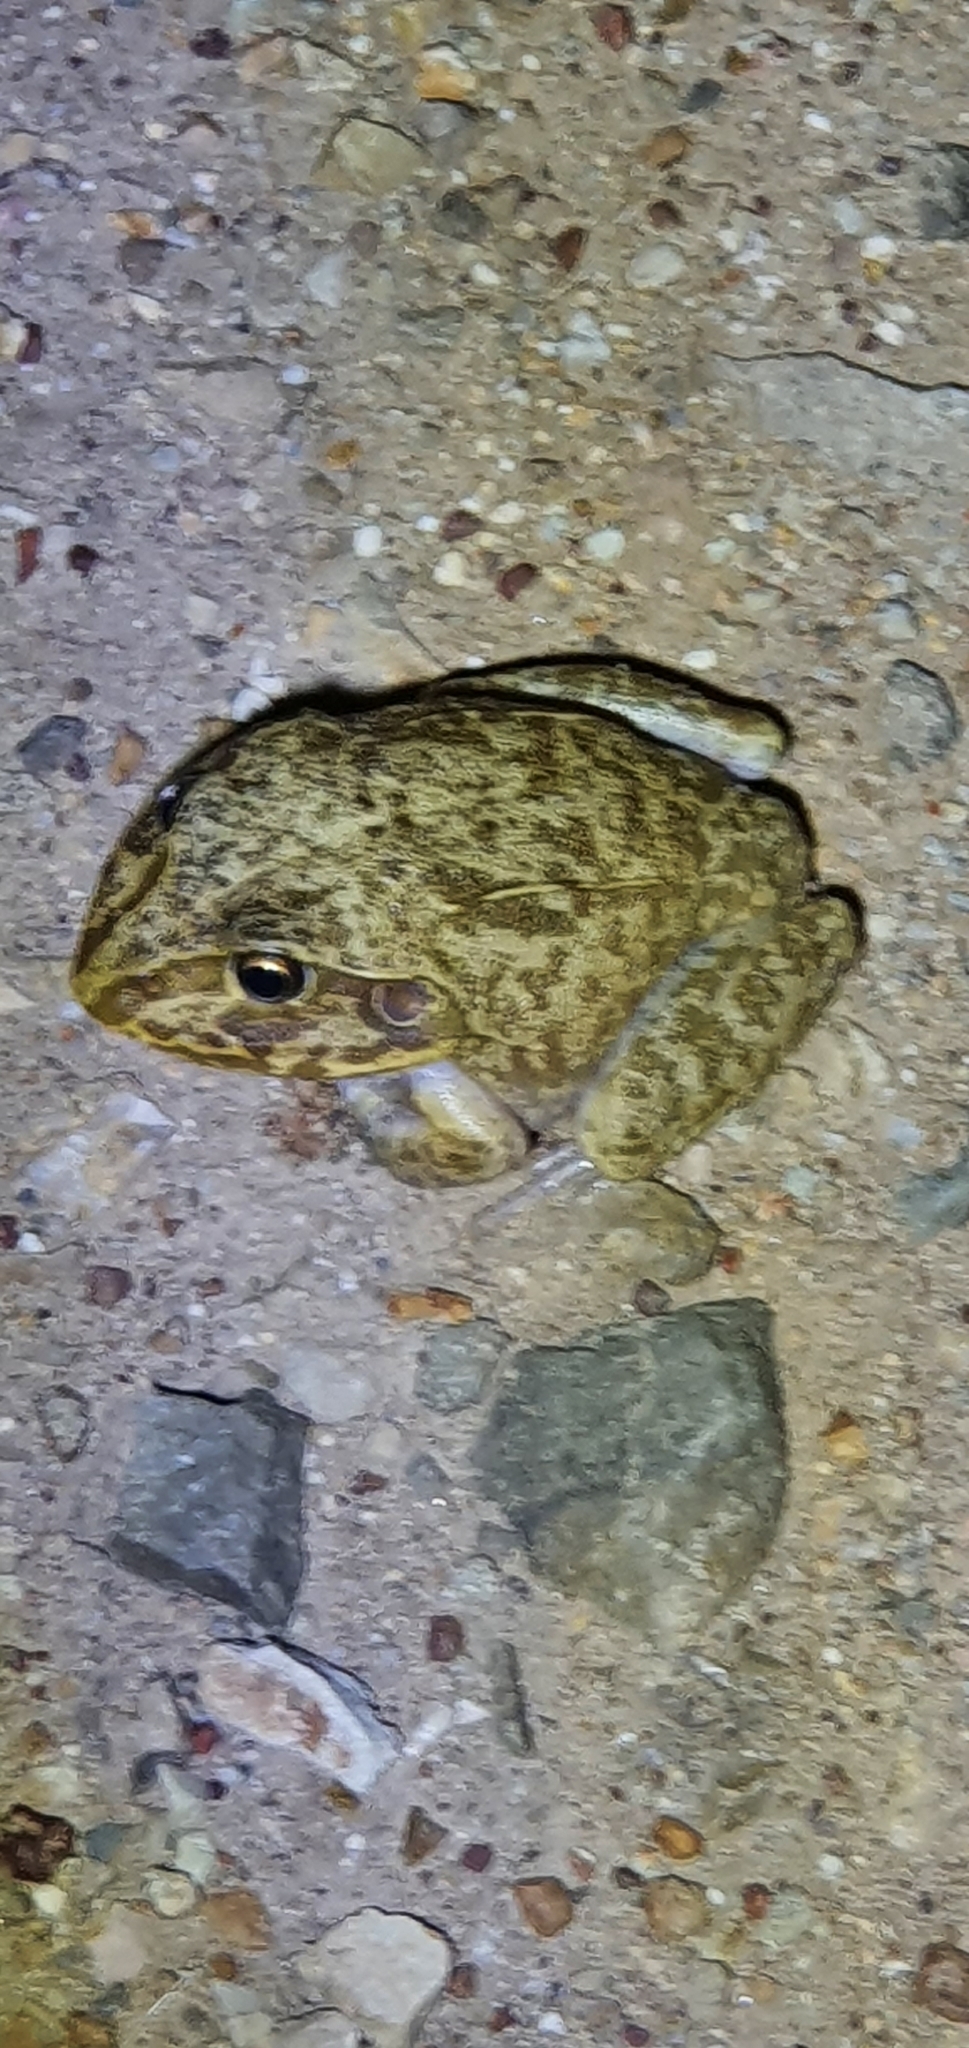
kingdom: Animalia
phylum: Chordata
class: Amphibia
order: Anura
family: Pelodryadidae
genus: Ranoidea
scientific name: Ranoidea novaehollandiae
